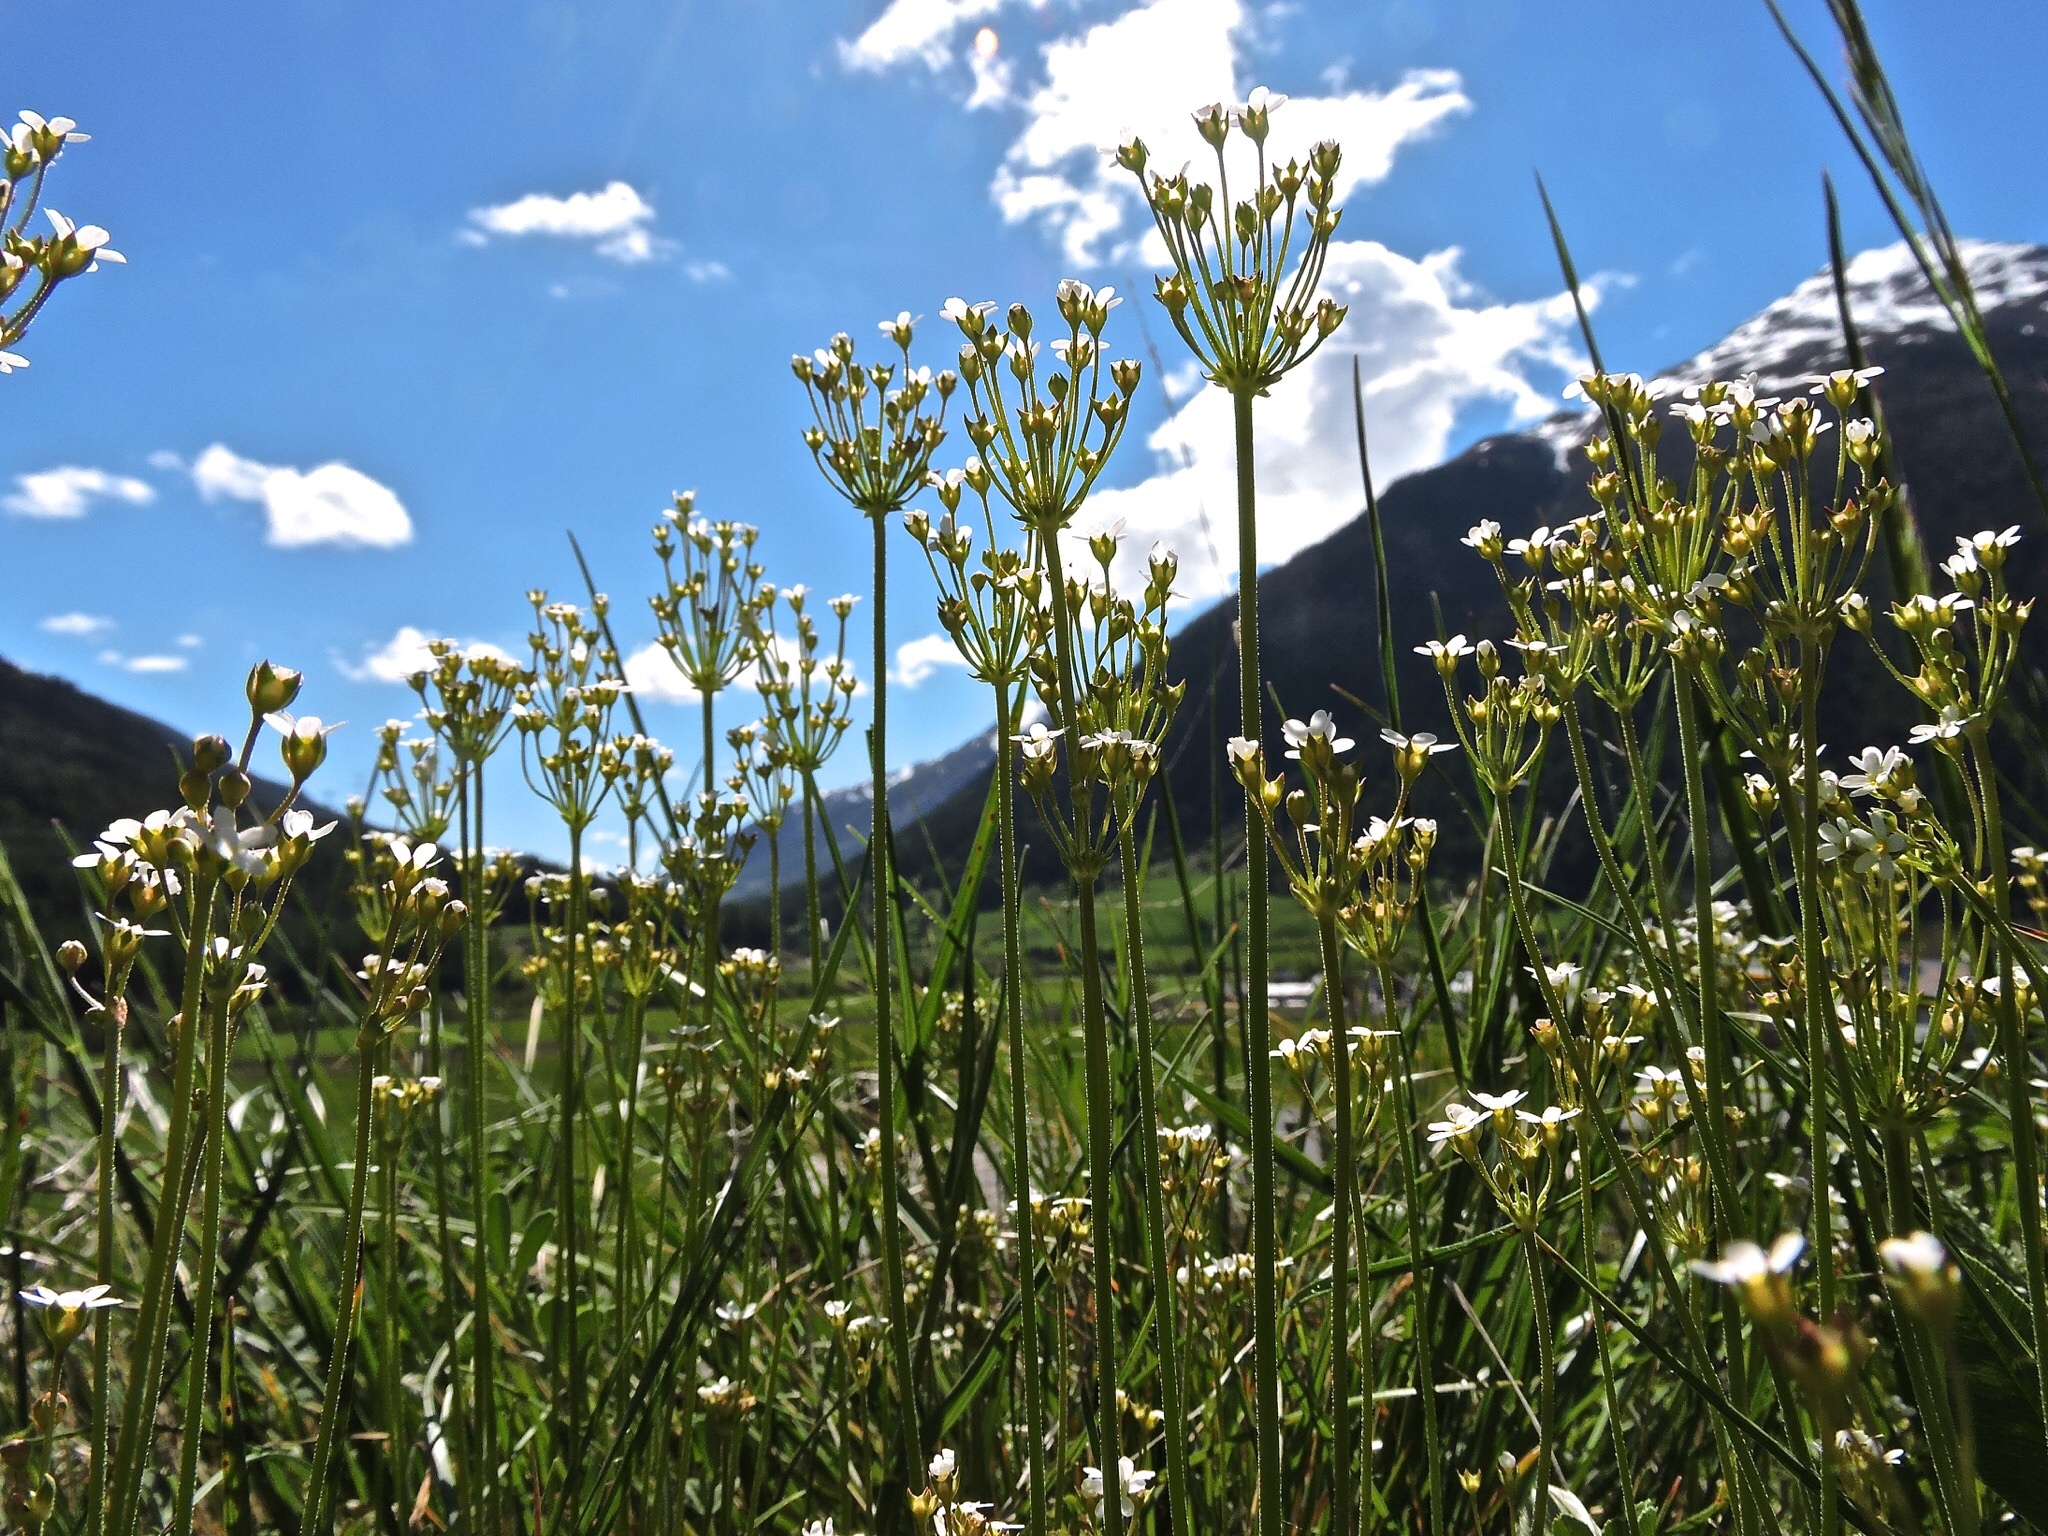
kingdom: Plantae
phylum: Tracheophyta
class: Magnoliopsida
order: Ericales
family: Primulaceae
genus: Androsace
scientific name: Androsace septentrionalis
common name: Hairy northern fairy-candelabra
